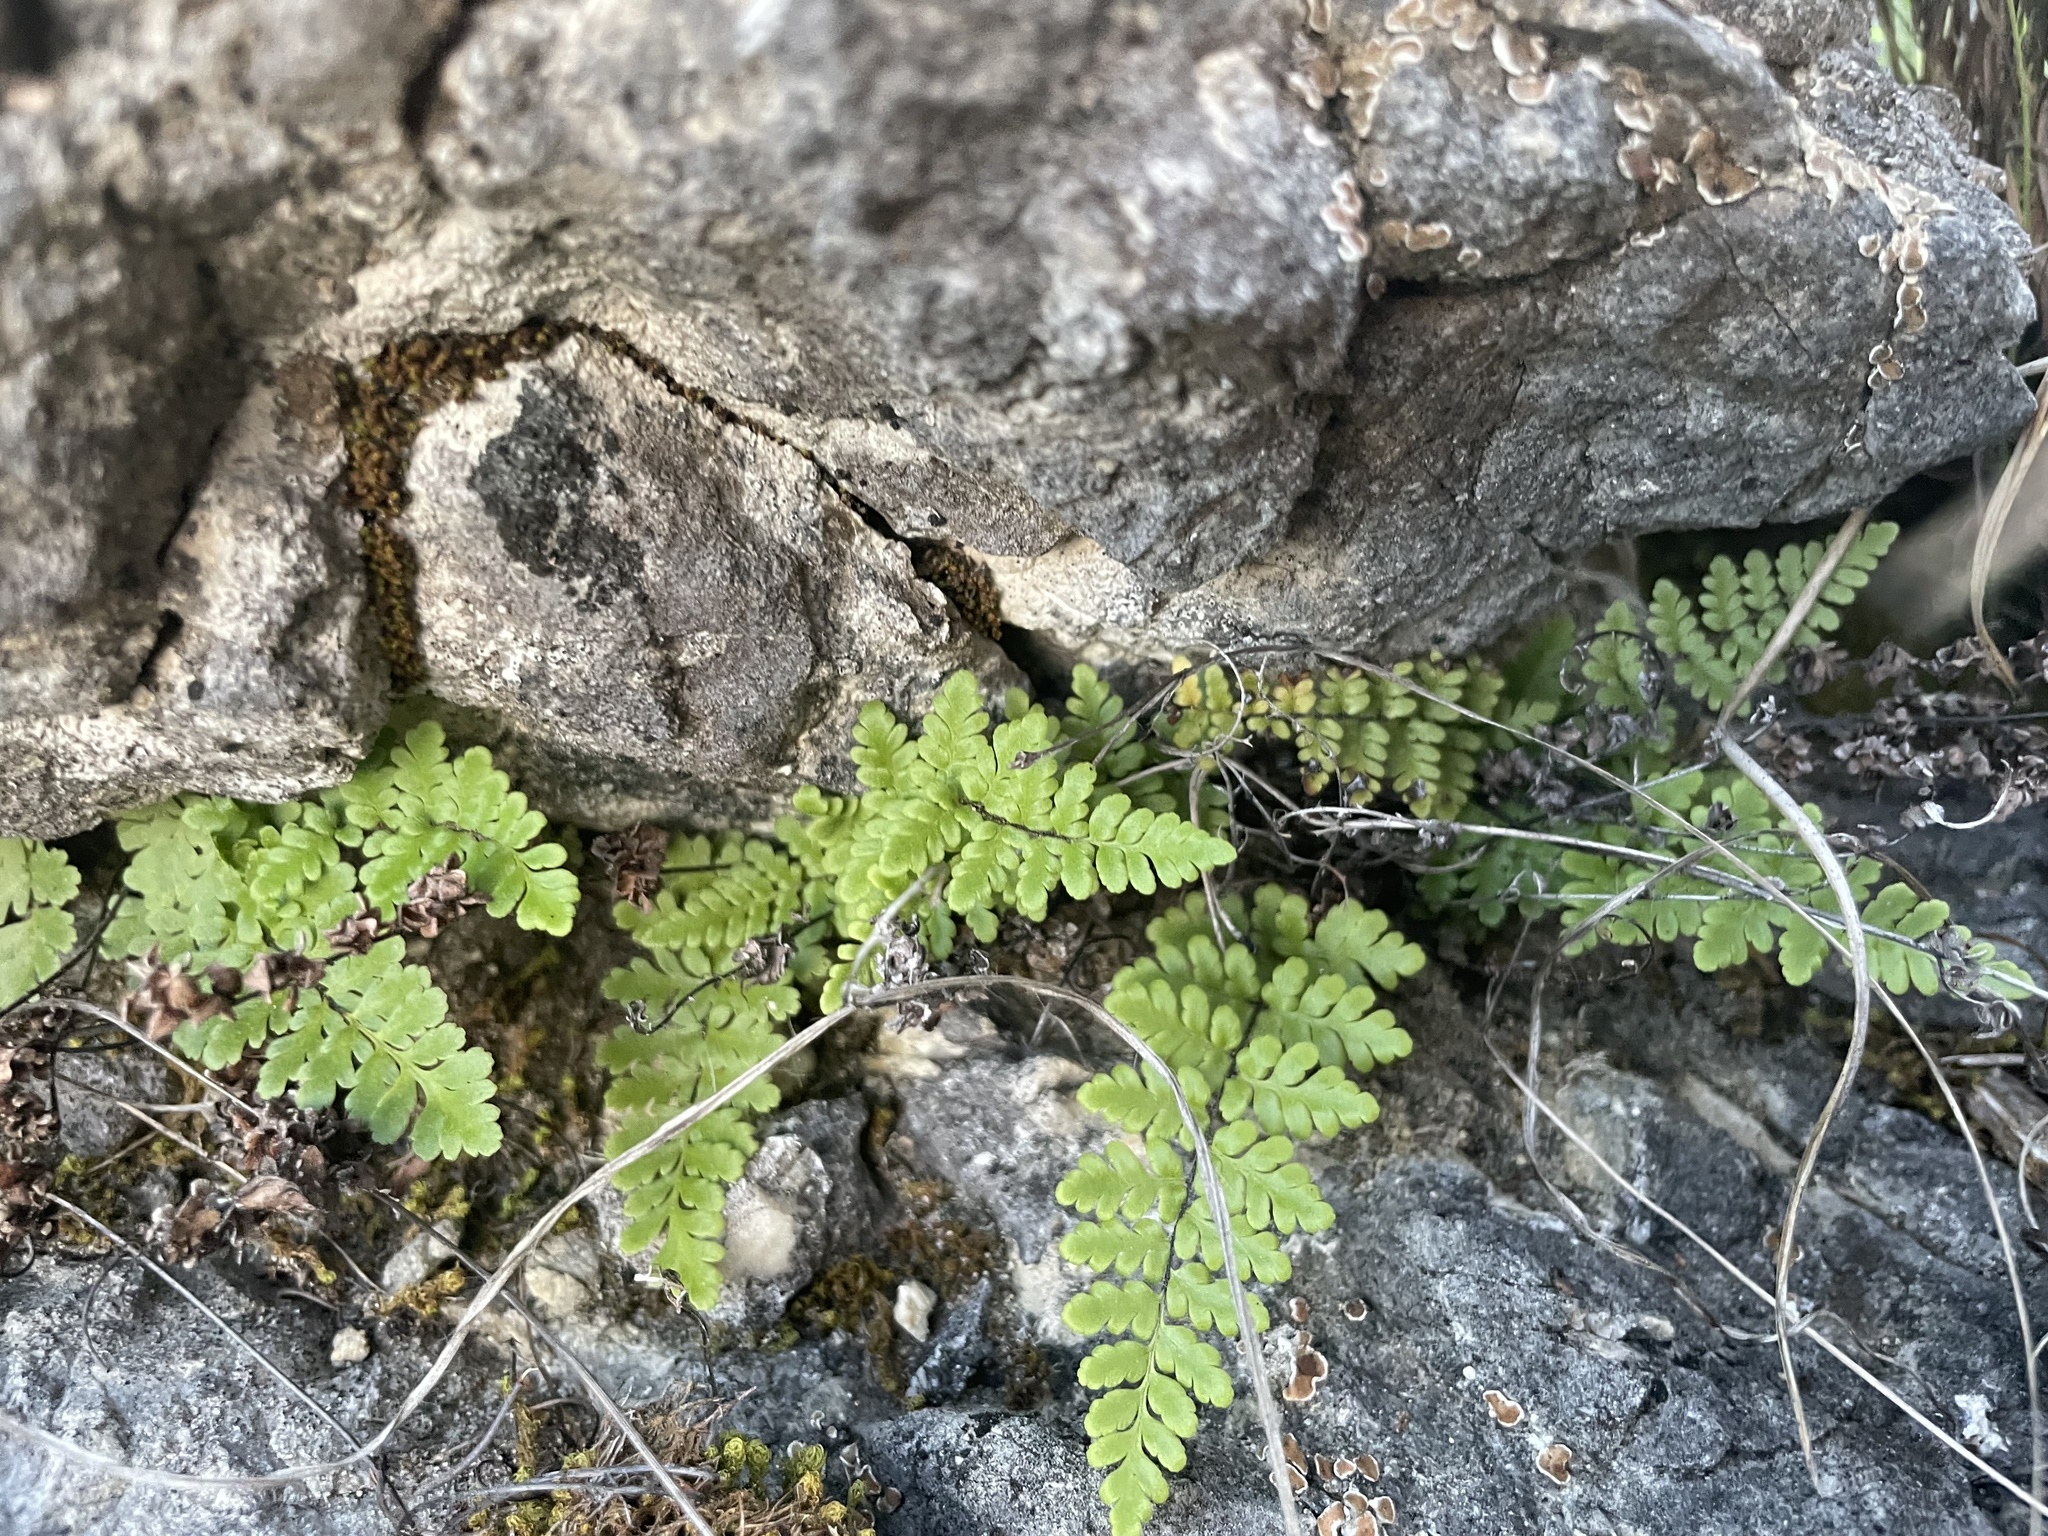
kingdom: Plantae
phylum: Tracheophyta
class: Polypodiopsida
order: Polypodiales
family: Pteridaceae
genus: Myriopteris
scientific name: Myriopteris alabamensis
